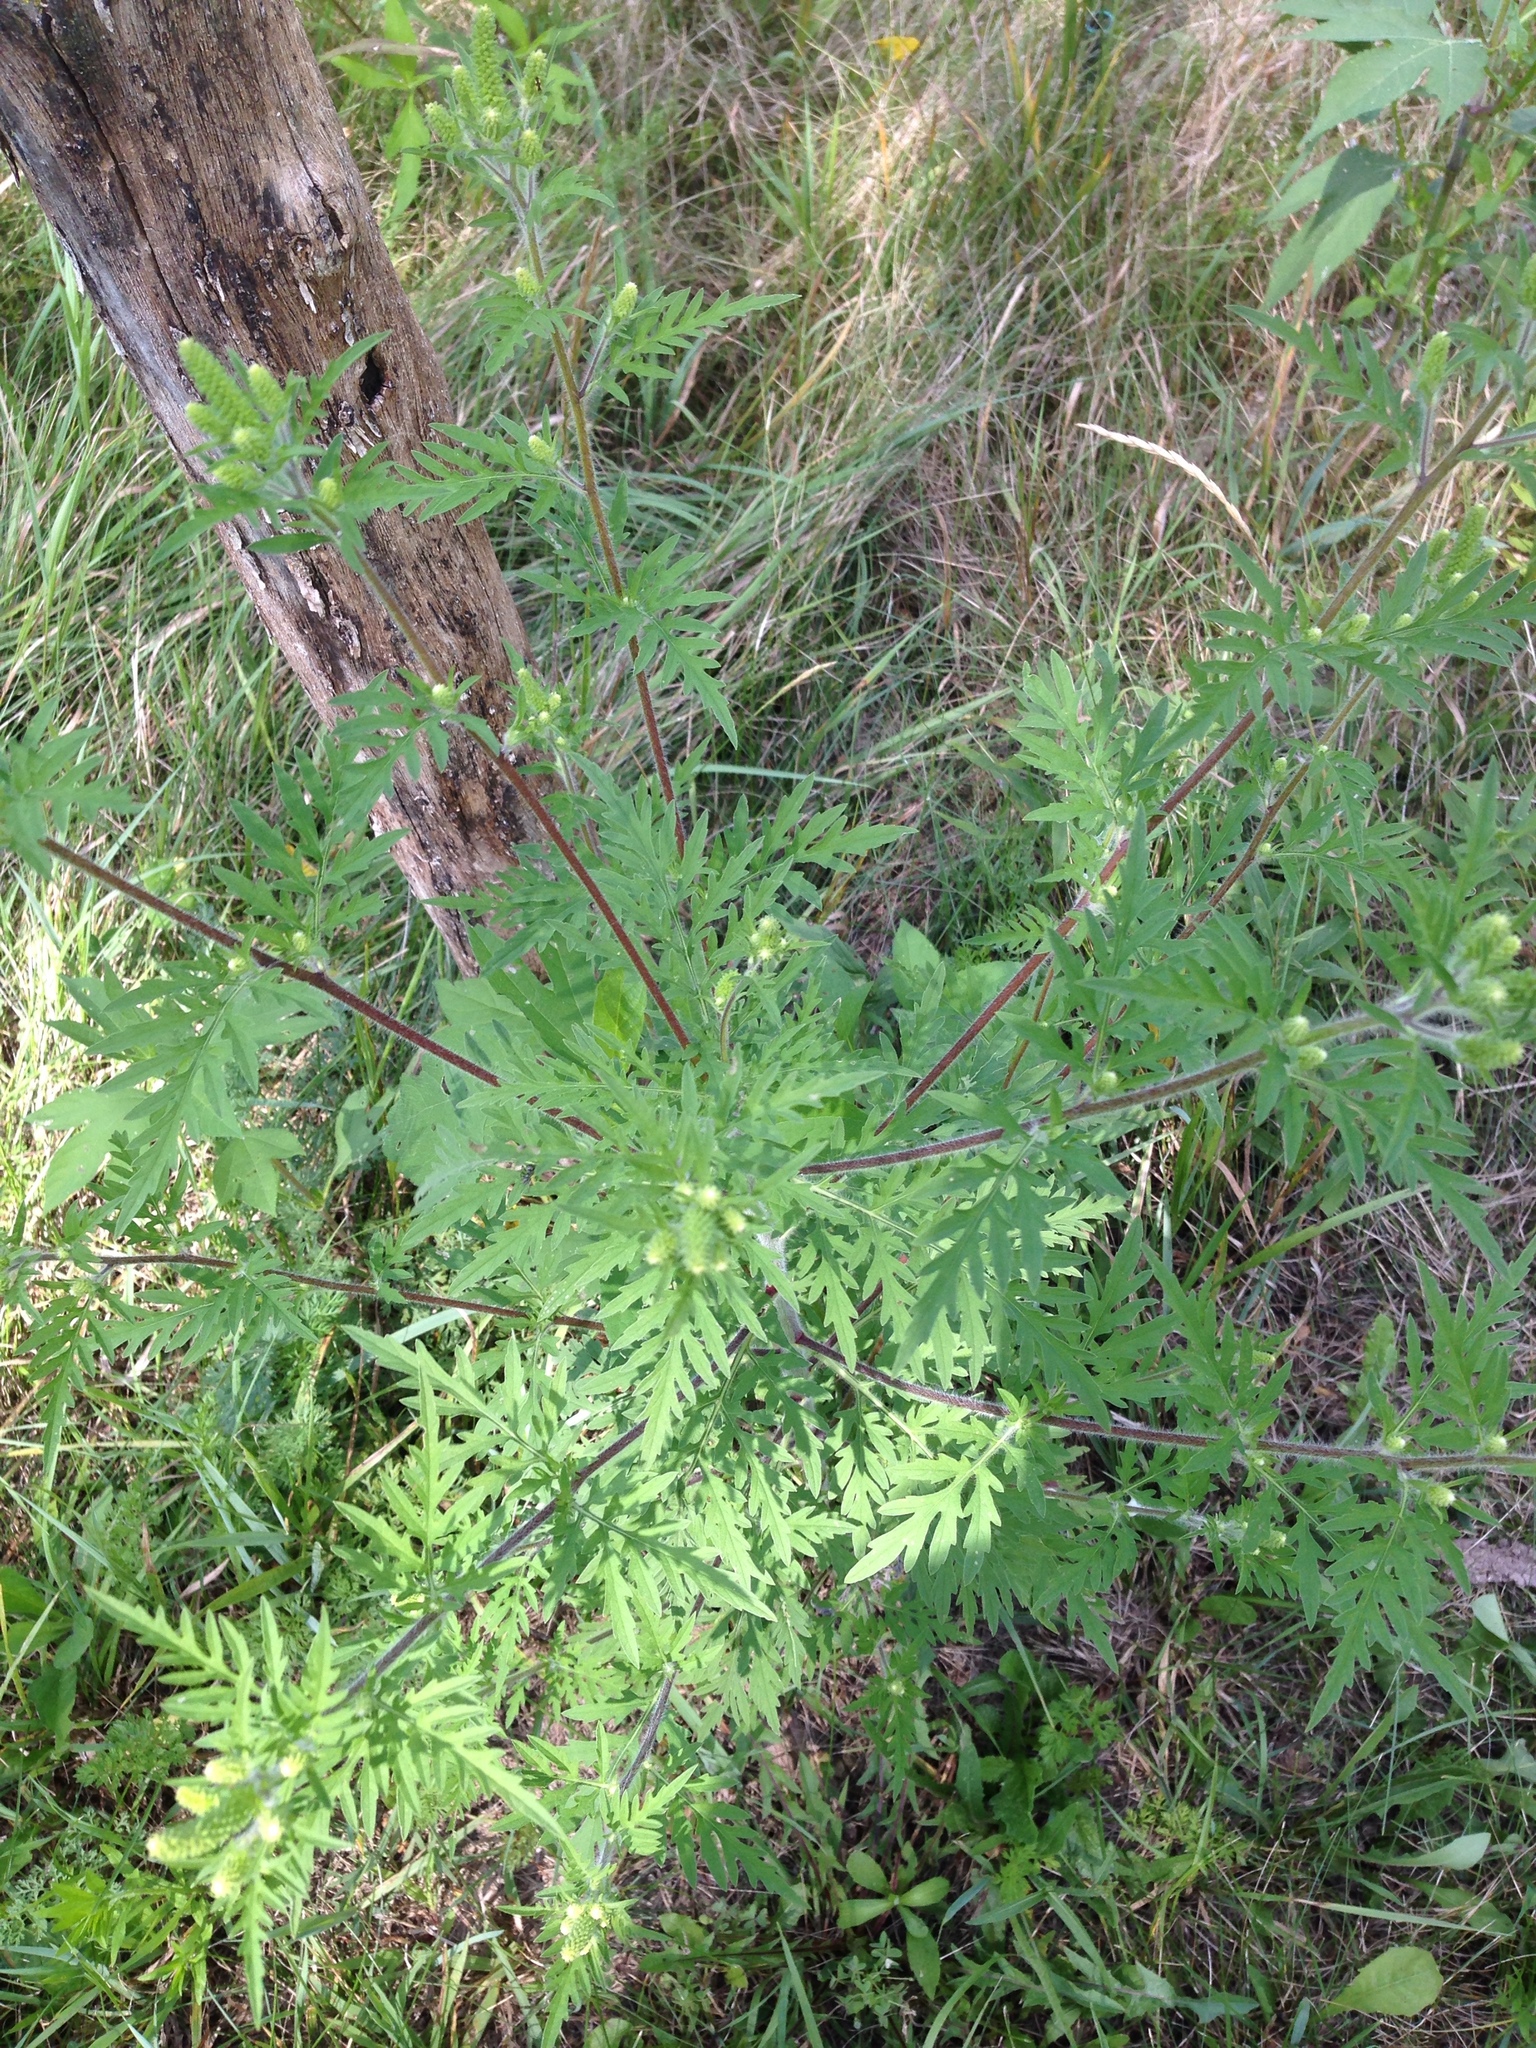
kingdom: Plantae
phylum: Tracheophyta
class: Magnoliopsida
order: Asterales
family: Asteraceae
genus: Ambrosia
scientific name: Ambrosia artemisiifolia
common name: Annual ragweed
